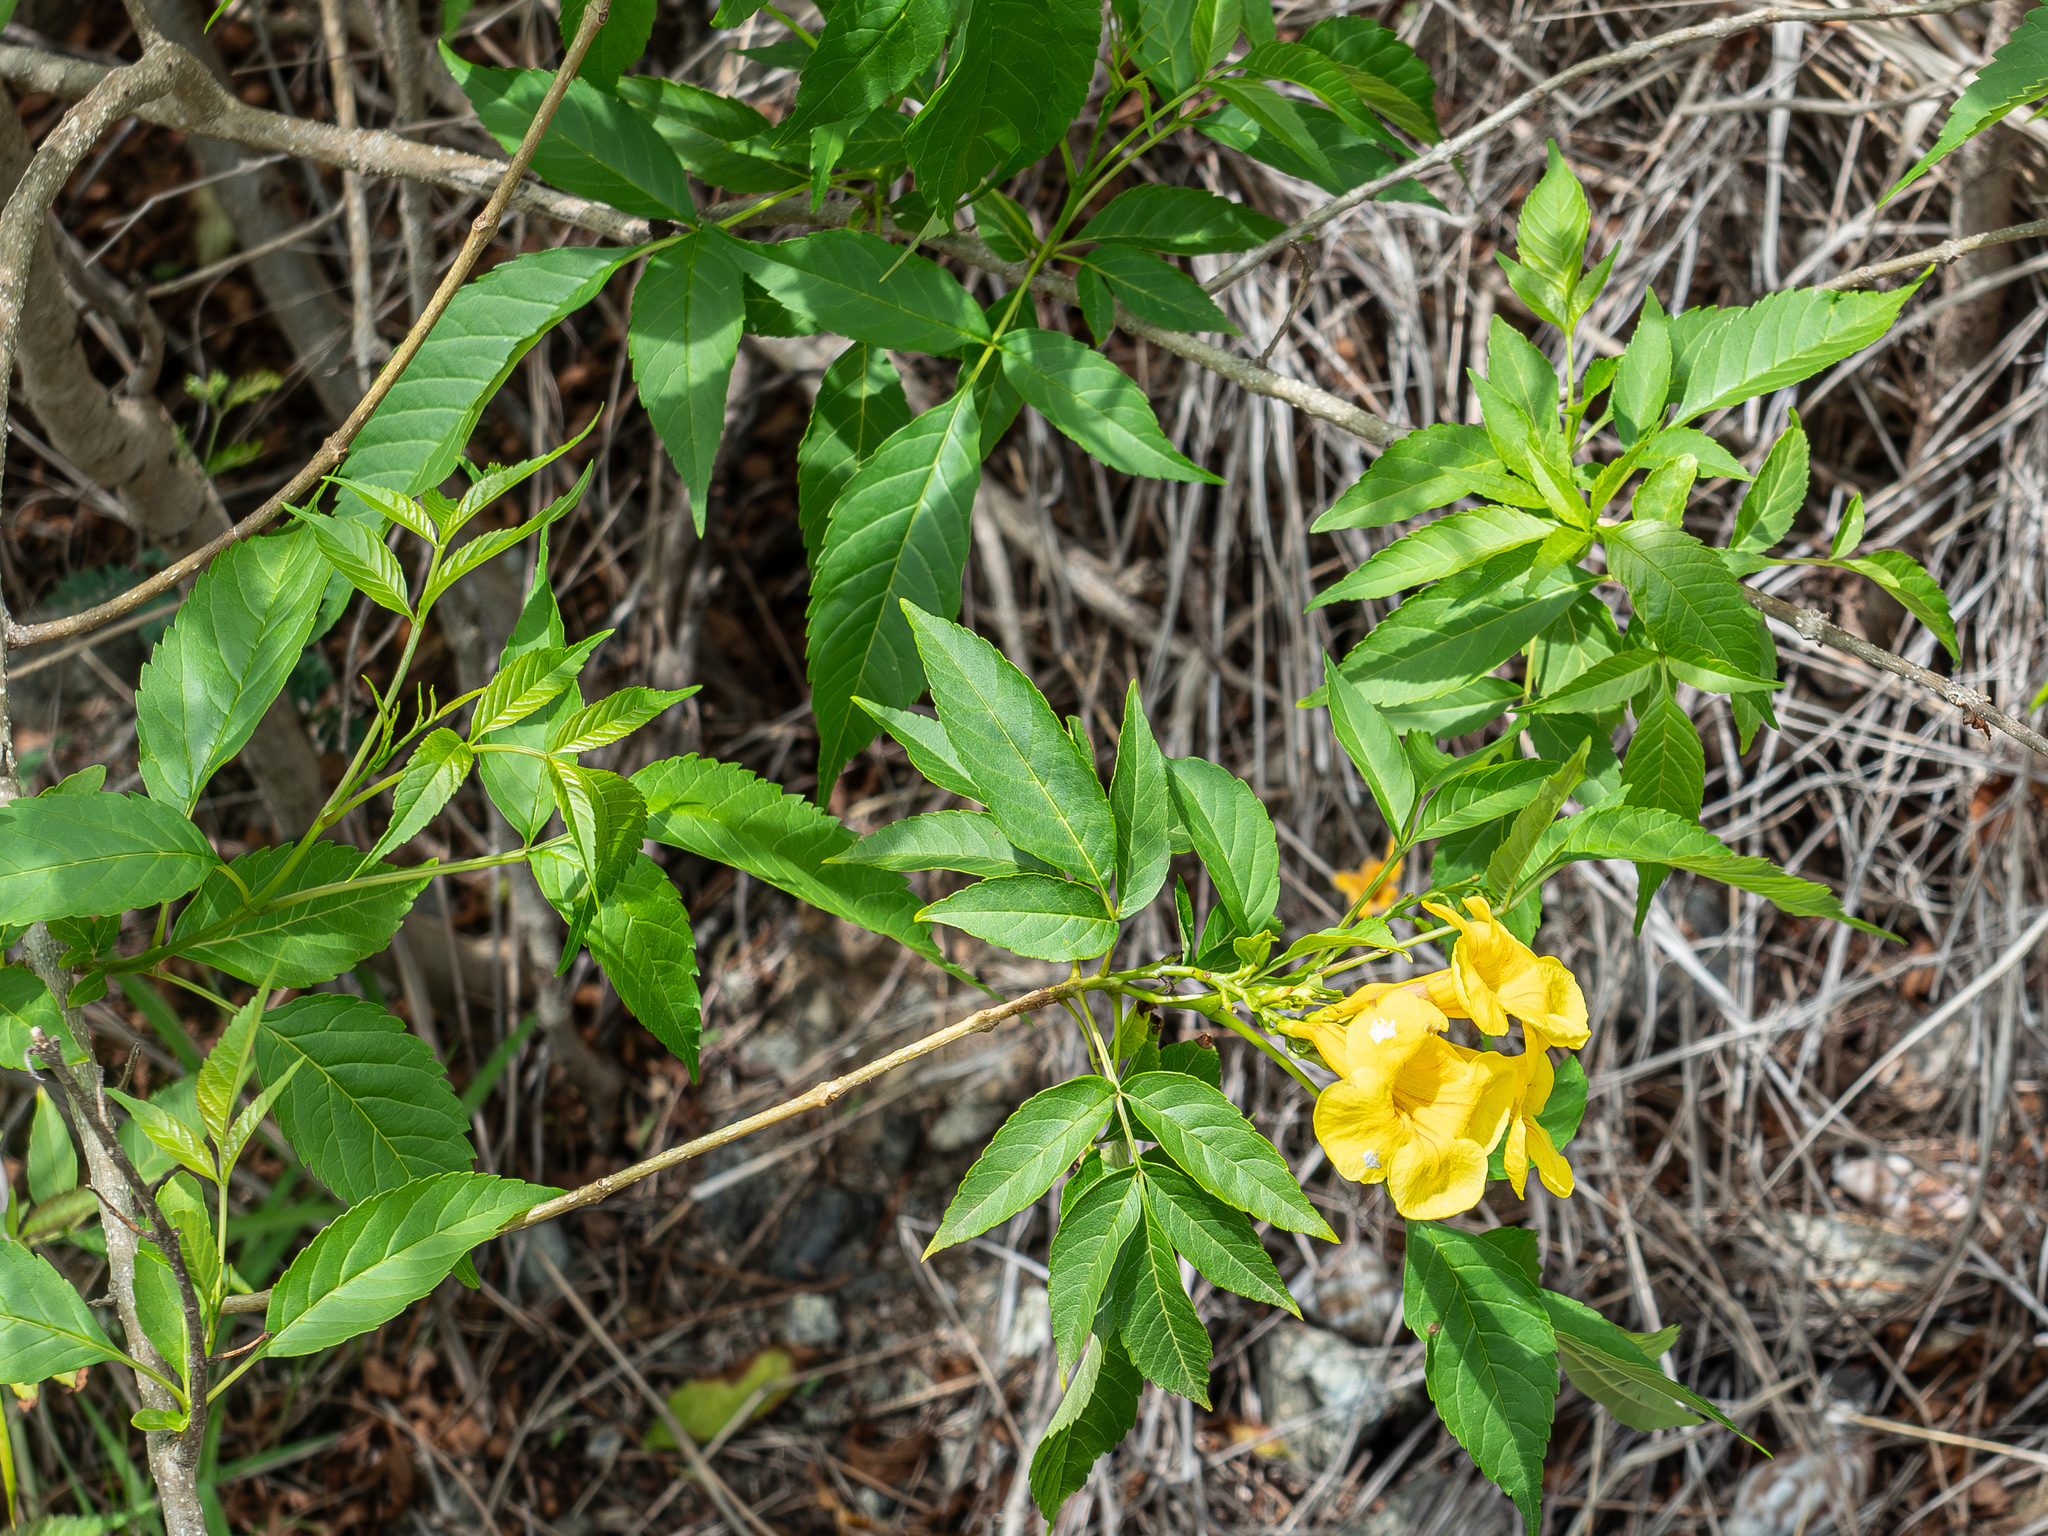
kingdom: Plantae
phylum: Tracheophyta
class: Magnoliopsida
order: Lamiales
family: Bignoniaceae
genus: Tecoma
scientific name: Tecoma stans
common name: Yellow trumpetbush
